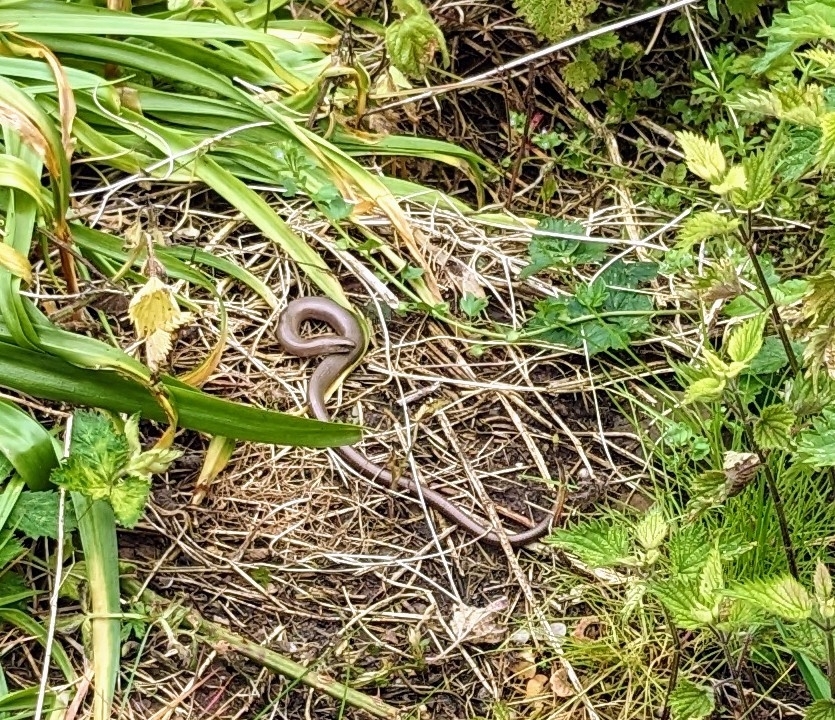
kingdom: Animalia
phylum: Chordata
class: Squamata
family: Anguidae
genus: Anguis
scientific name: Anguis fragilis
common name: Slow worm
